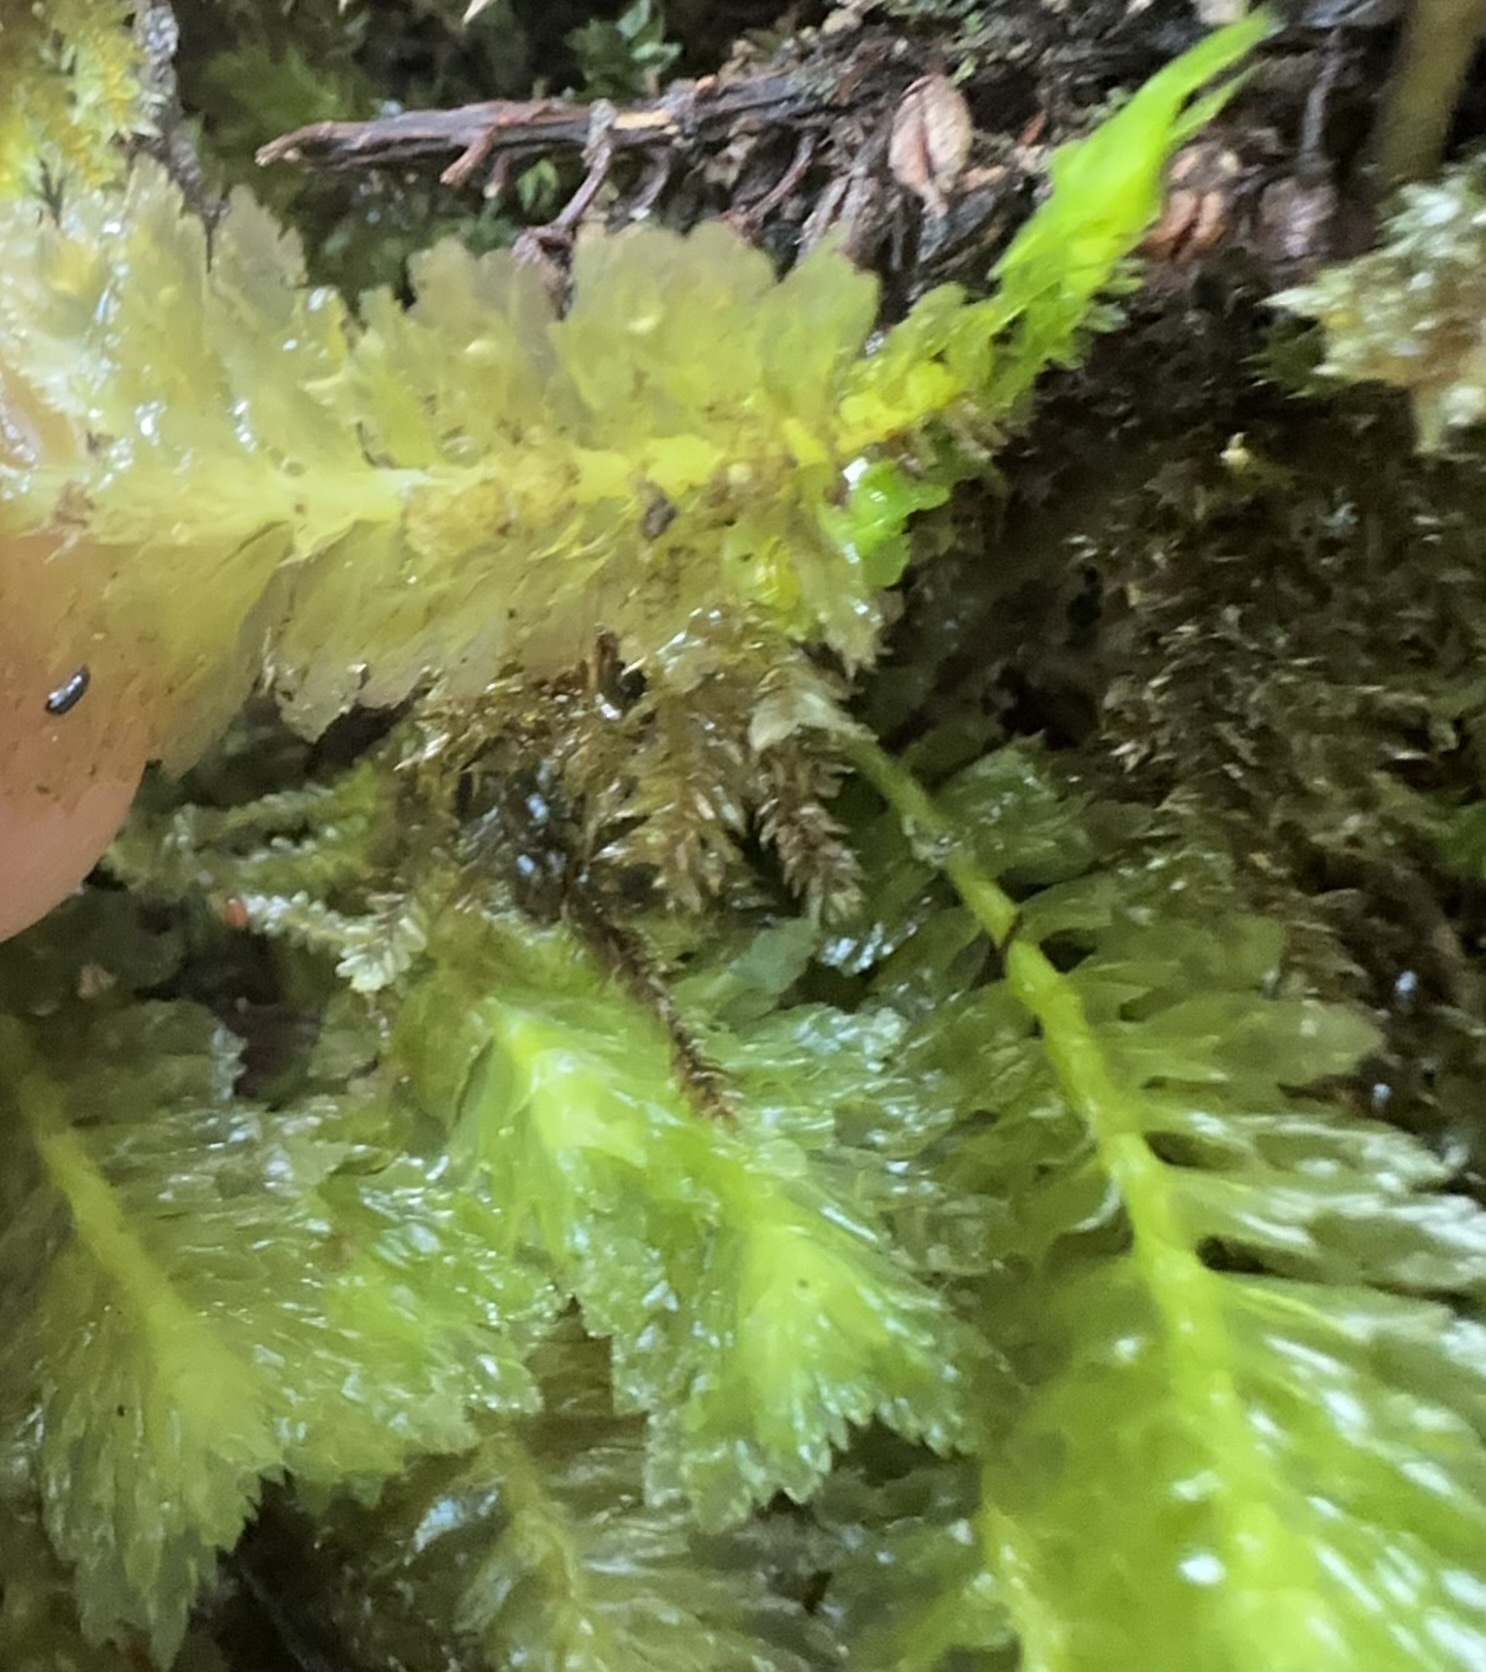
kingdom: Plantae
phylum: Marchantiophyta
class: Jungermanniopsida
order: Jungermanniales
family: Schistochilaceae
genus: Schistochila
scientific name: Schistochila appendiculata
